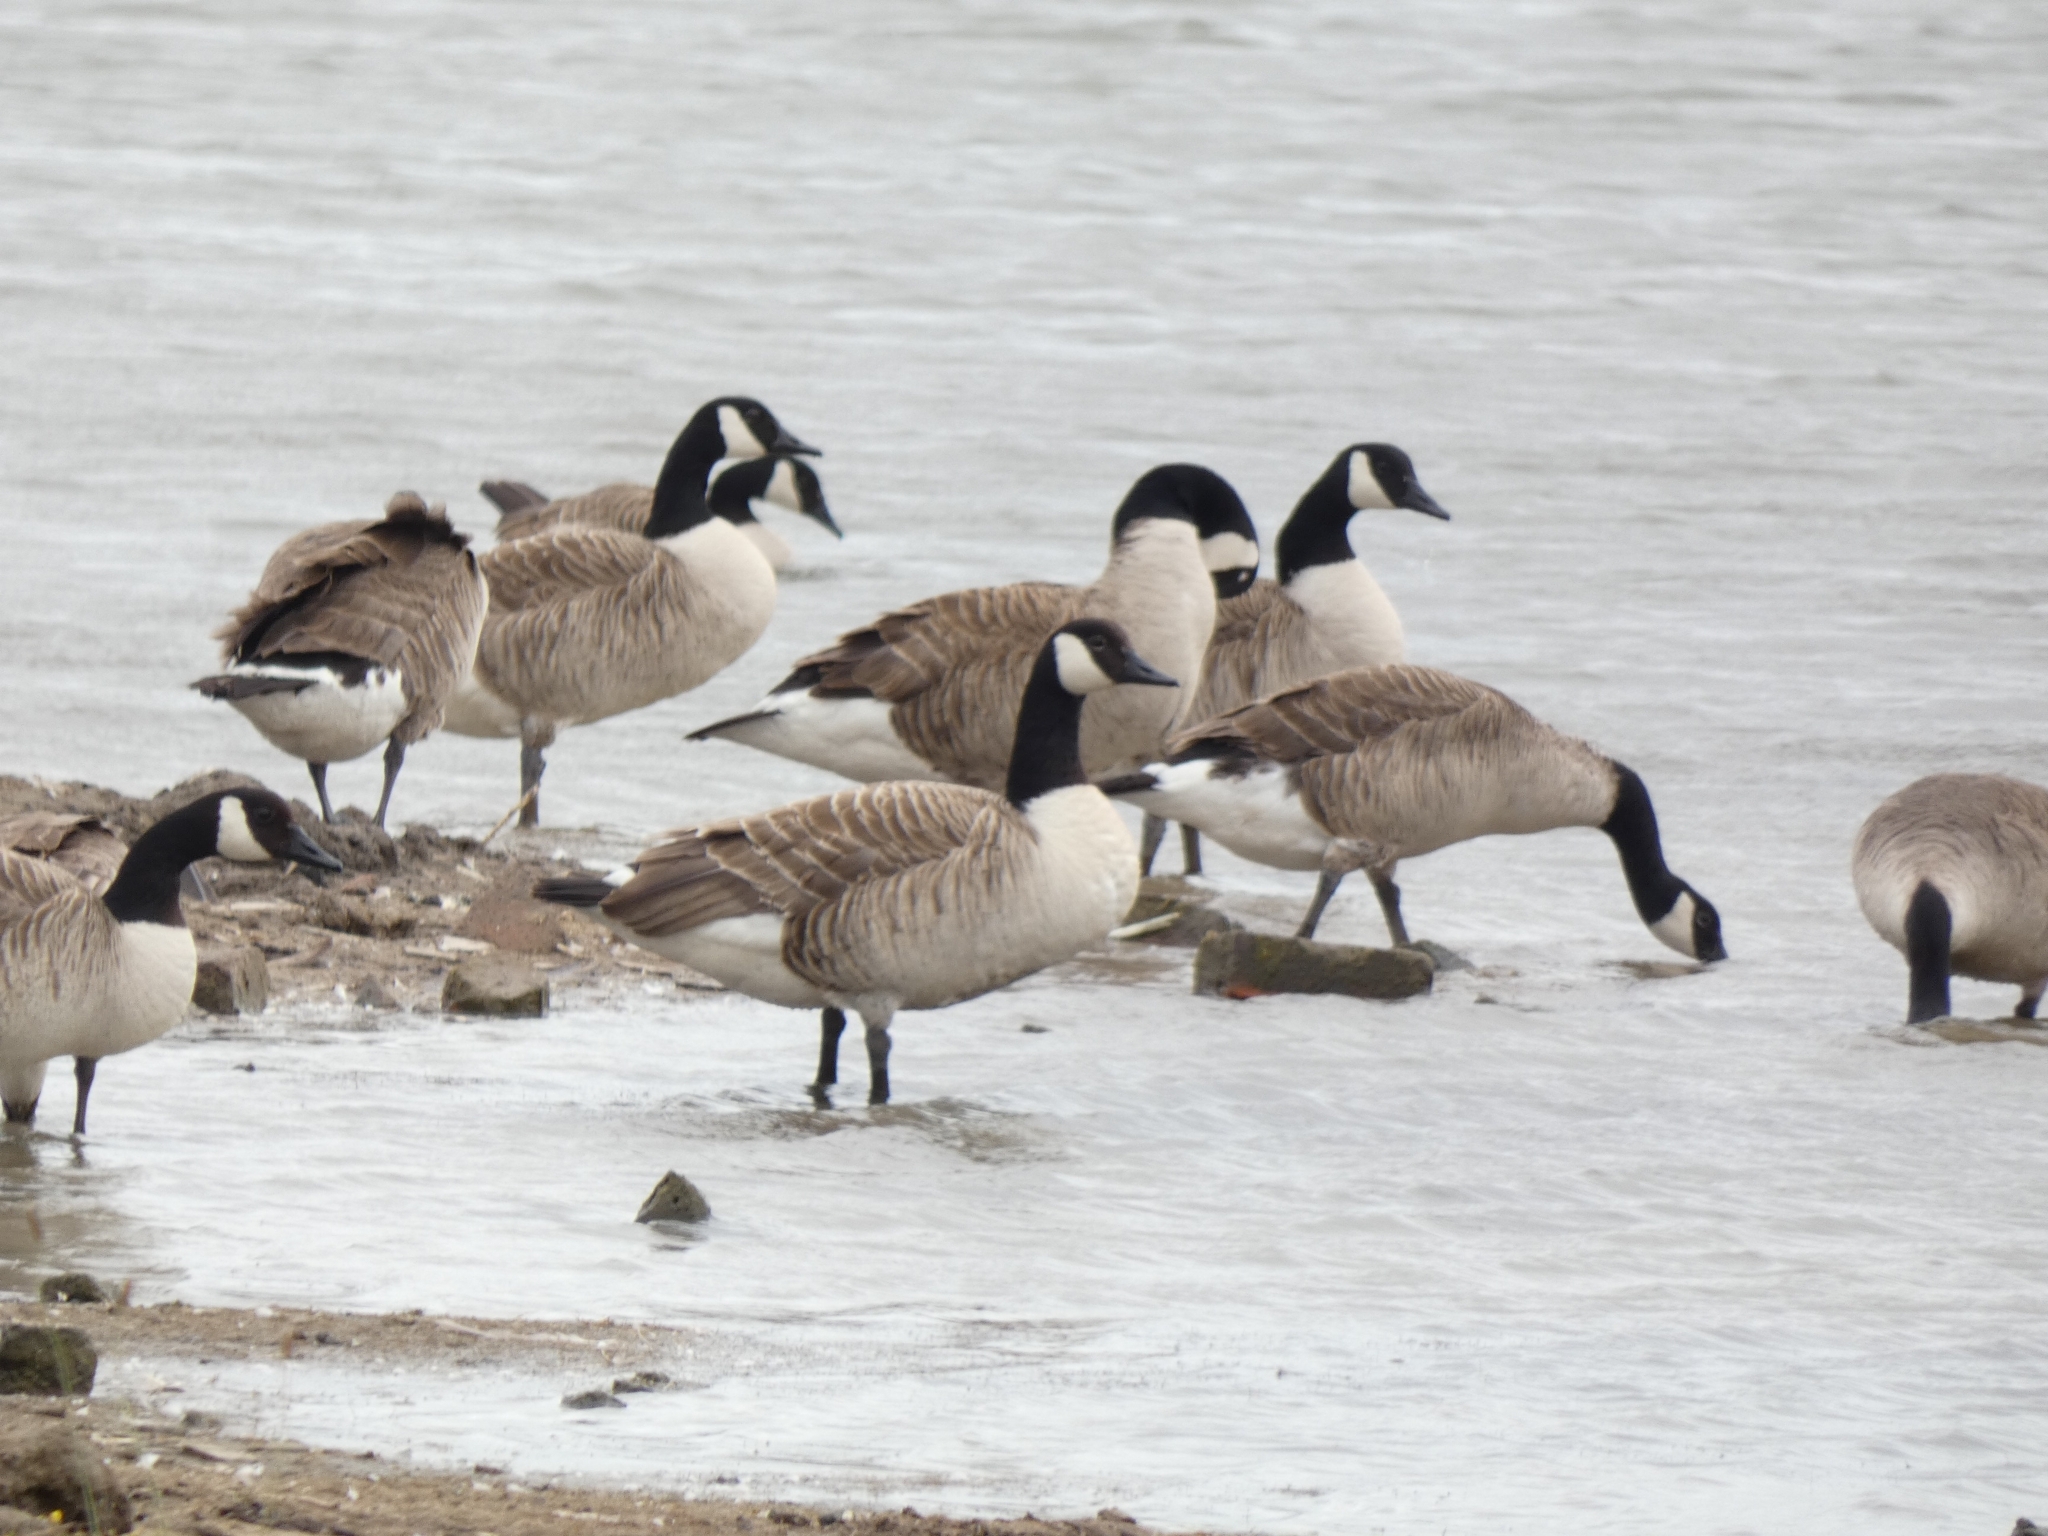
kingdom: Animalia
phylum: Chordata
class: Aves
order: Anseriformes
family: Anatidae
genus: Branta
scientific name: Branta canadensis
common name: Canada goose
